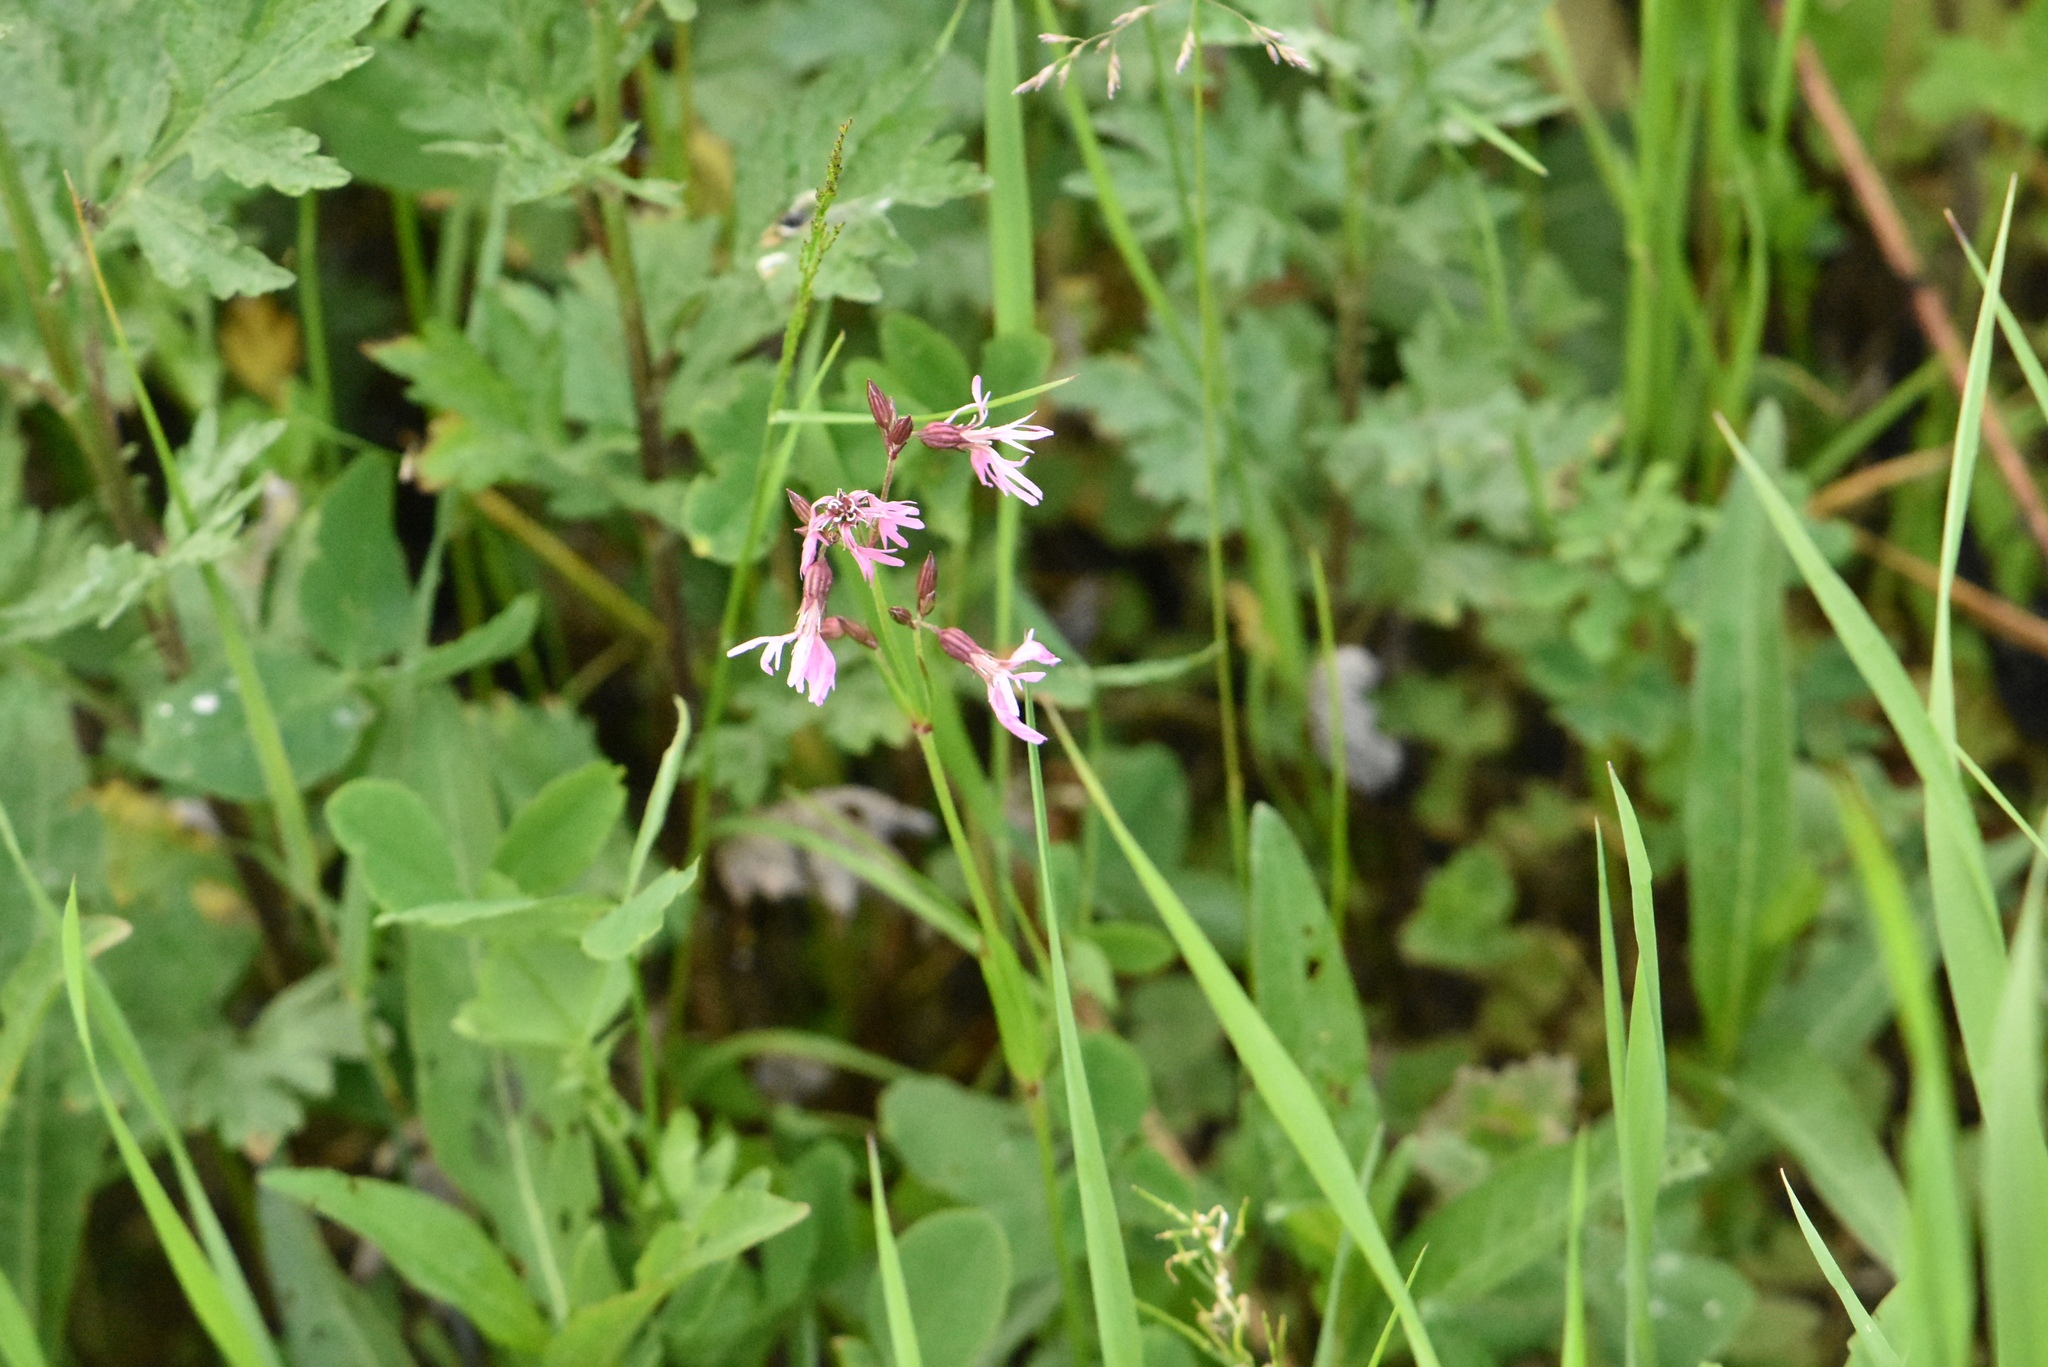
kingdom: Plantae
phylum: Tracheophyta
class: Magnoliopsida
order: Caryophyllales
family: Caryophyllaceae
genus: Silene
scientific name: Silene flos-cuculi
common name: Ragged-robin
